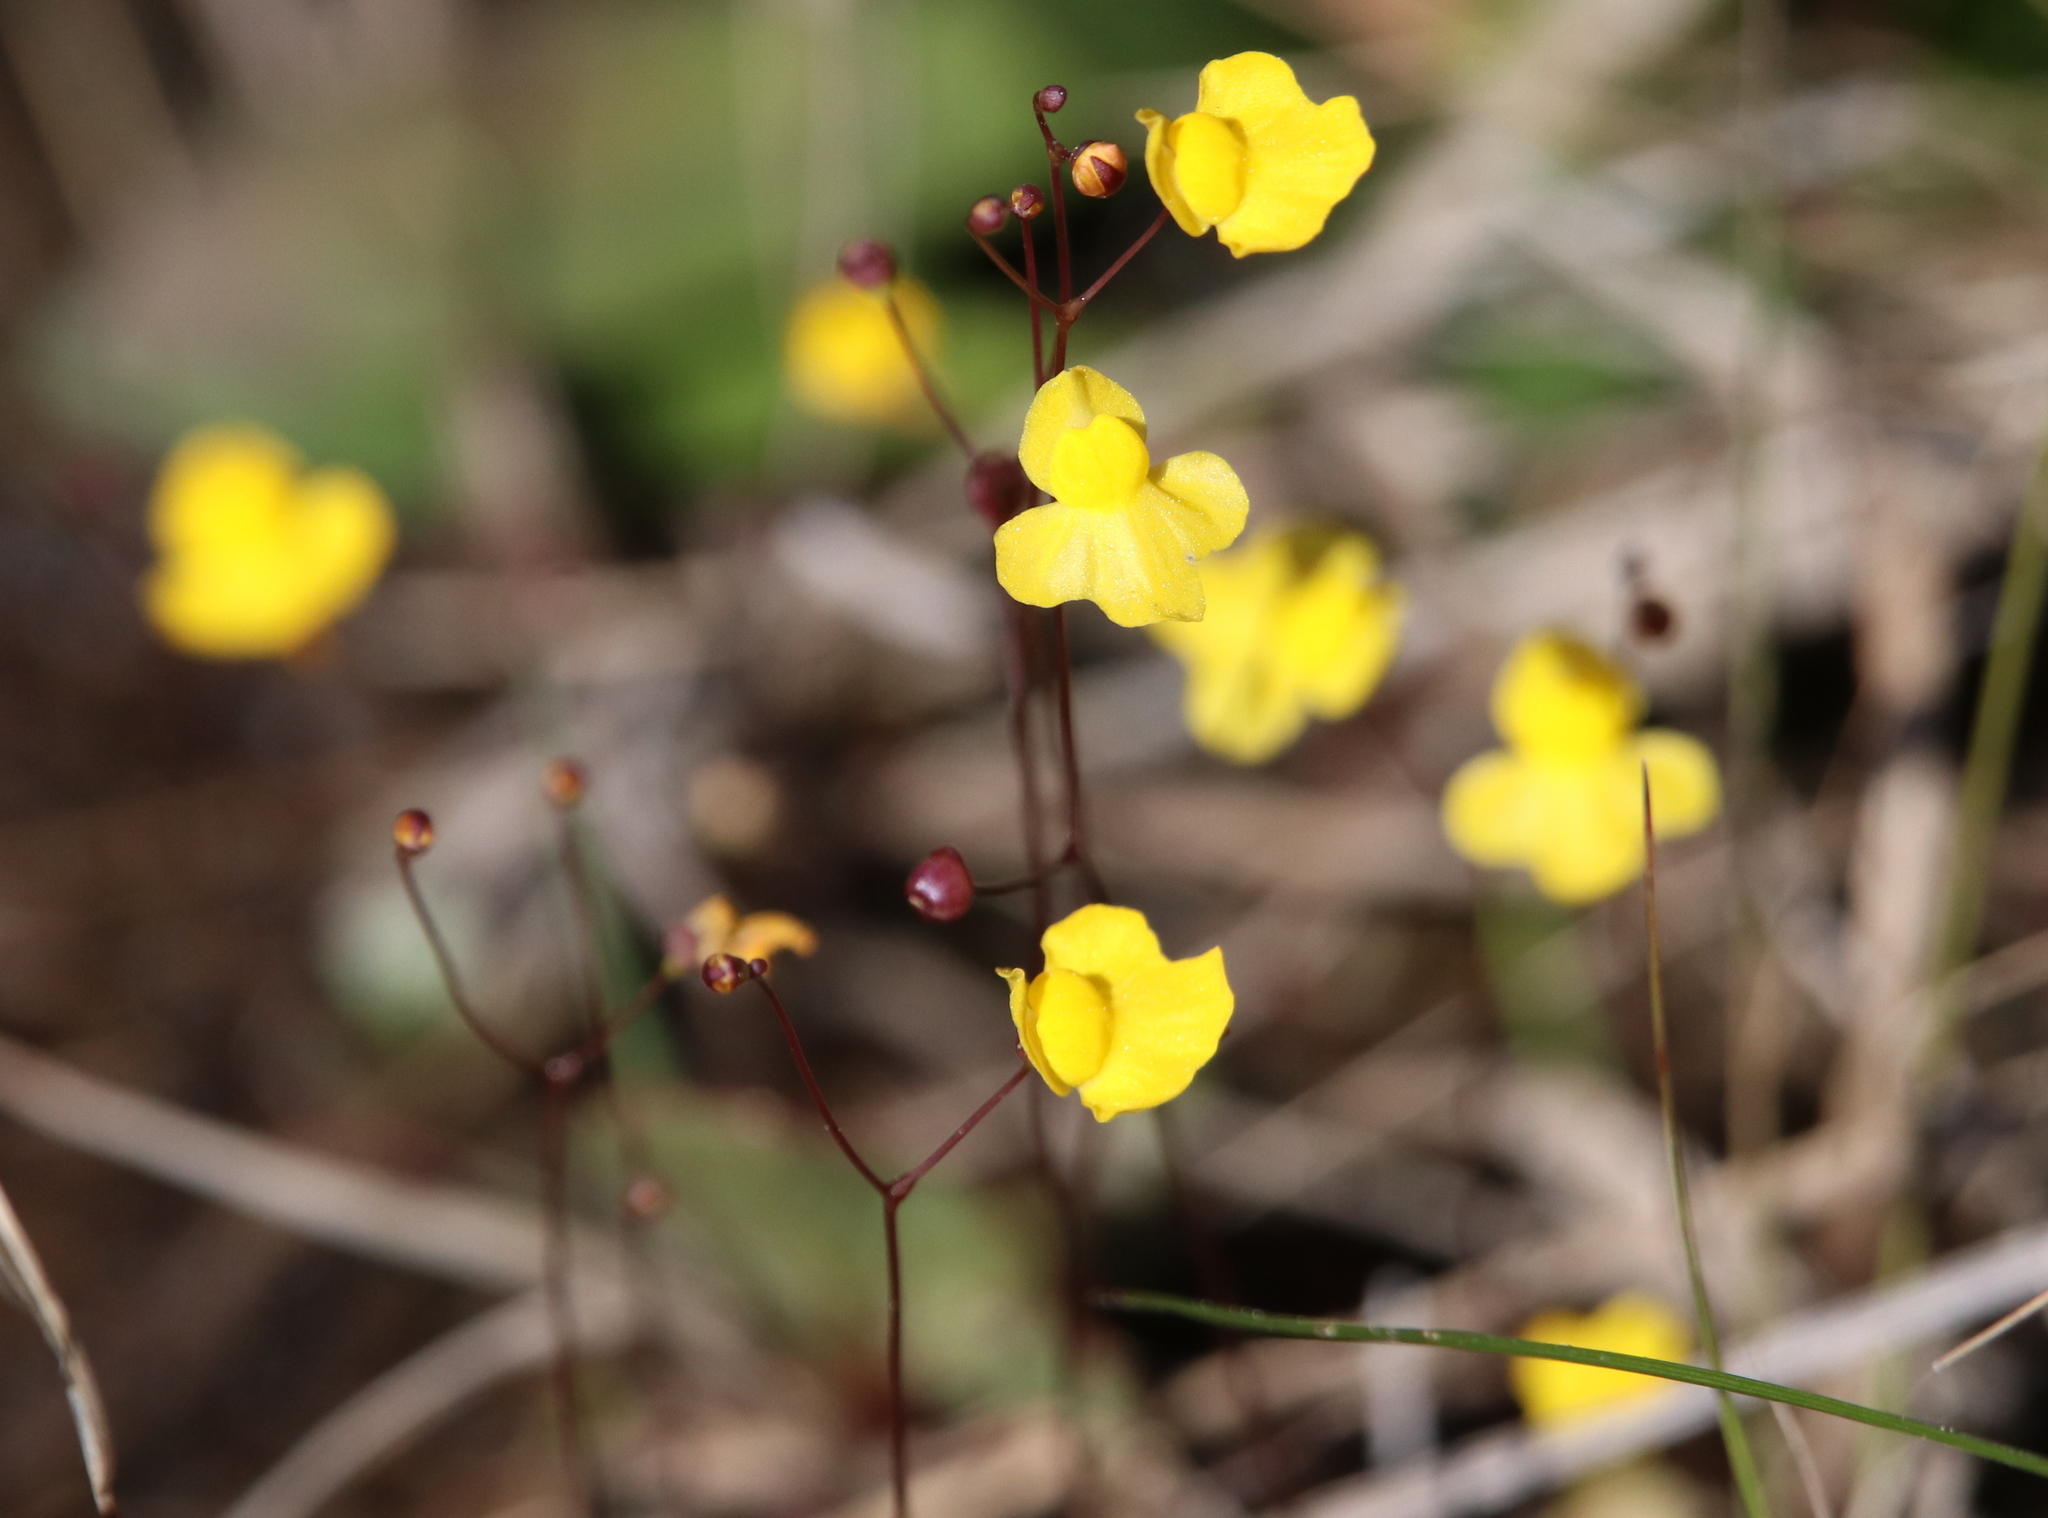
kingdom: Plantae
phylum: Tracheophyta
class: Magnoliopsida
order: Lamiales
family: Lentibulariaceae
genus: Utricularia
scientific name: Utricularia subulata
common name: Tiny bladderwort
